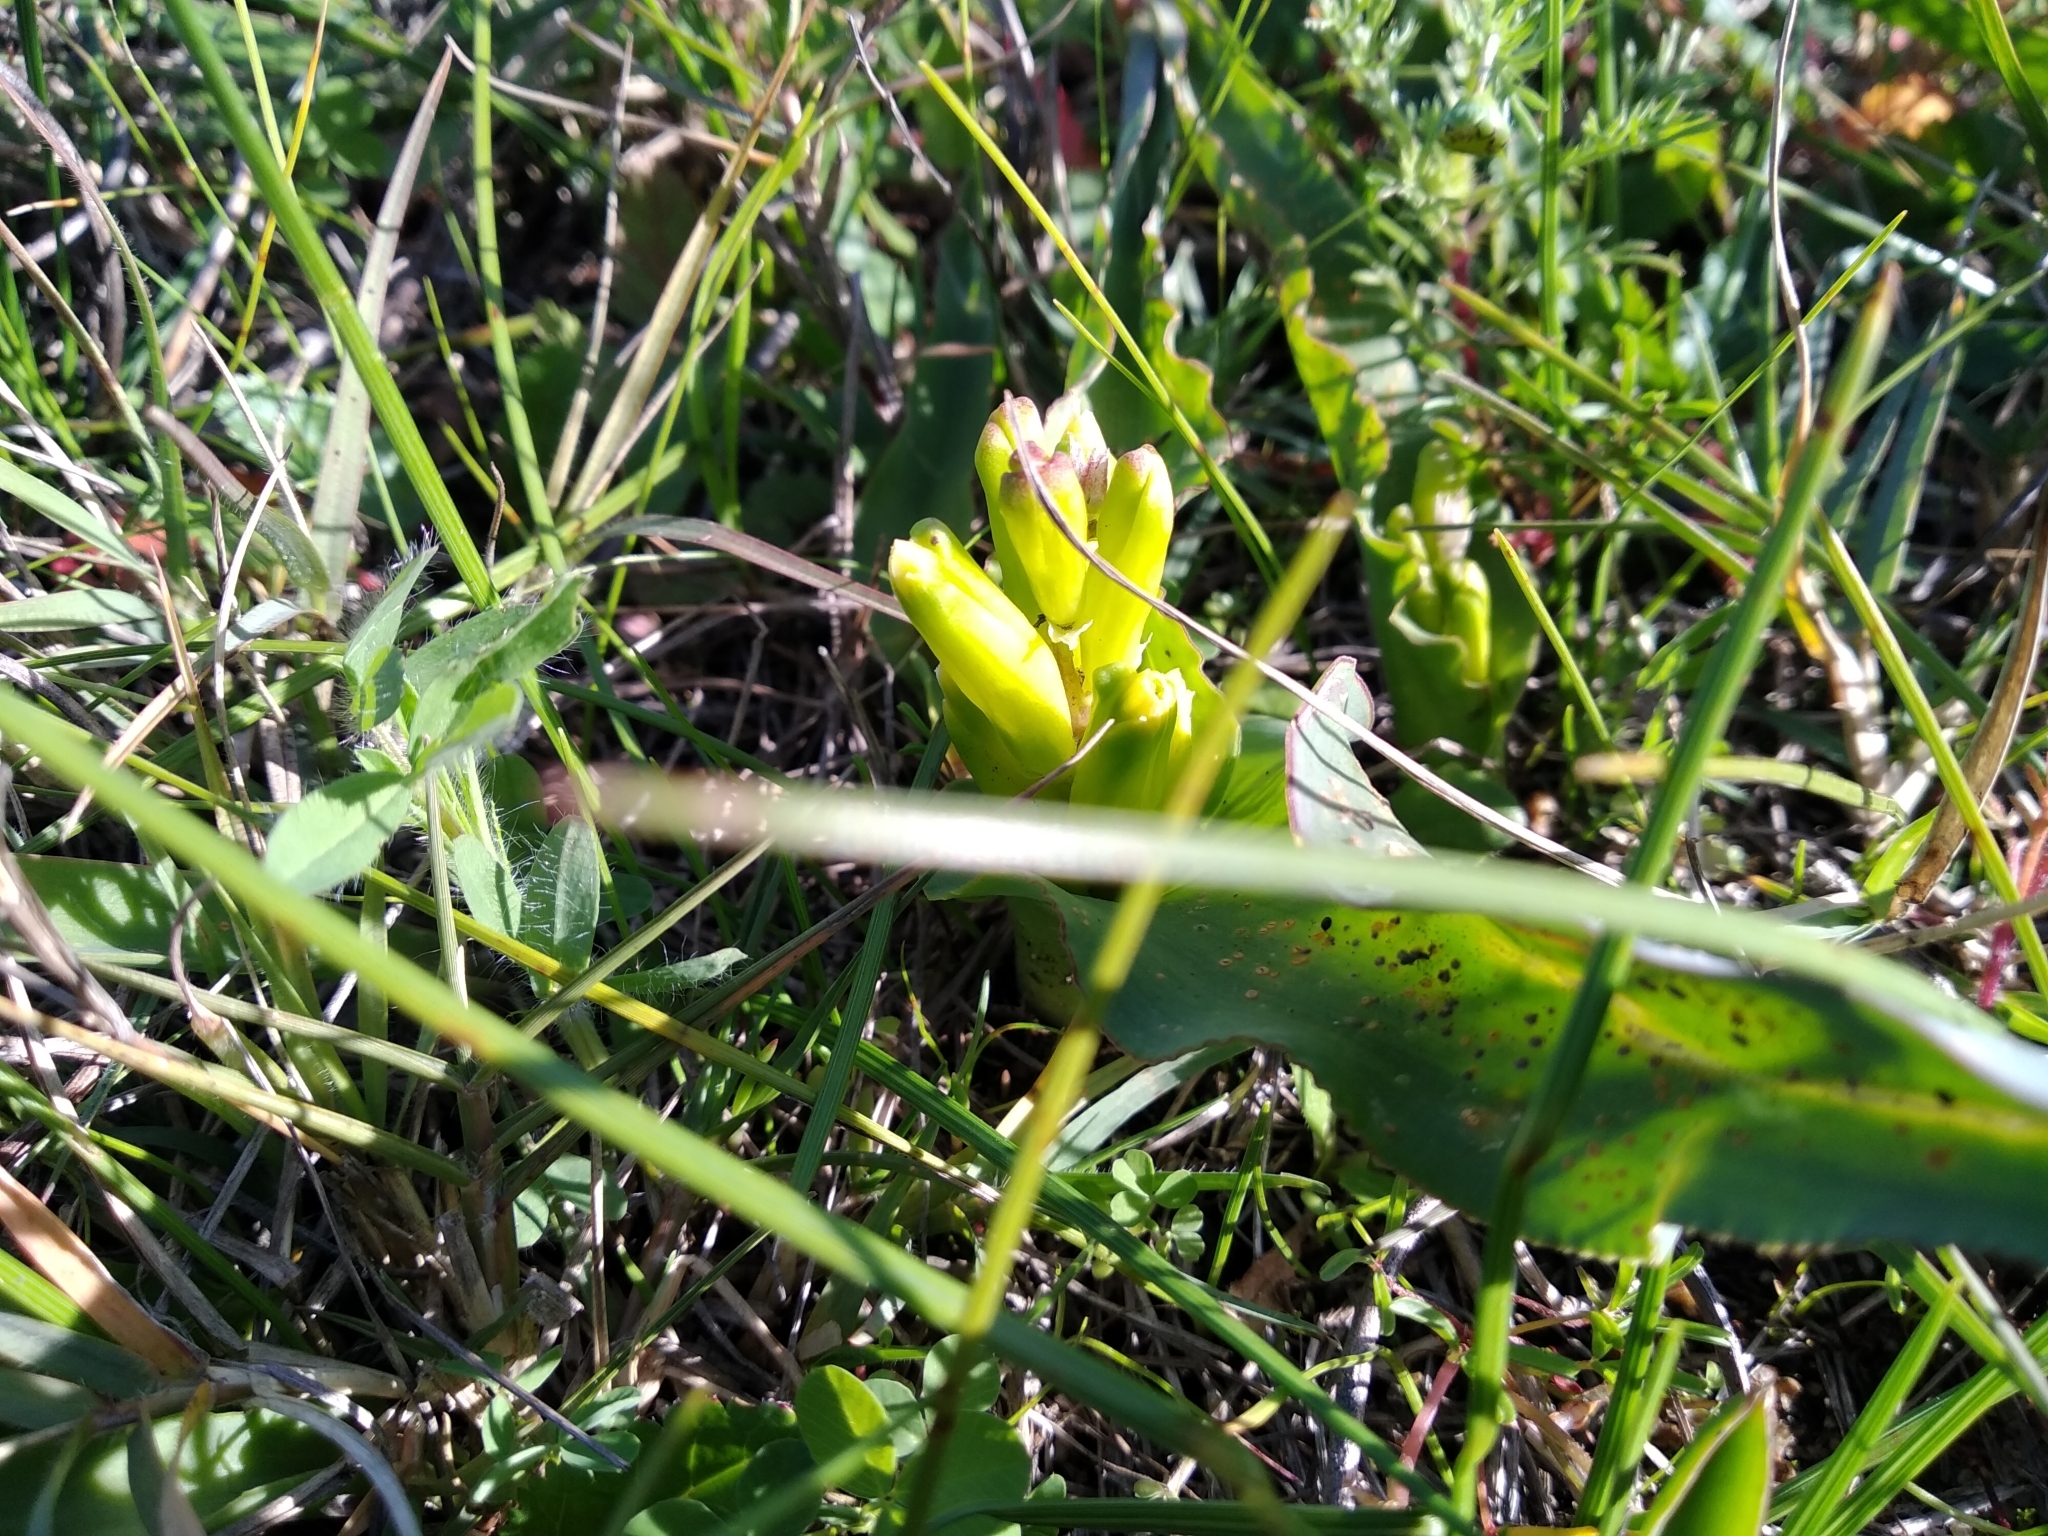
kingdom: Plantae
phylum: Tracheophyta
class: Liliopsida
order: Asparagales
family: Asparagaceae
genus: Lachenalia
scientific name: Lachenalia reflexa
